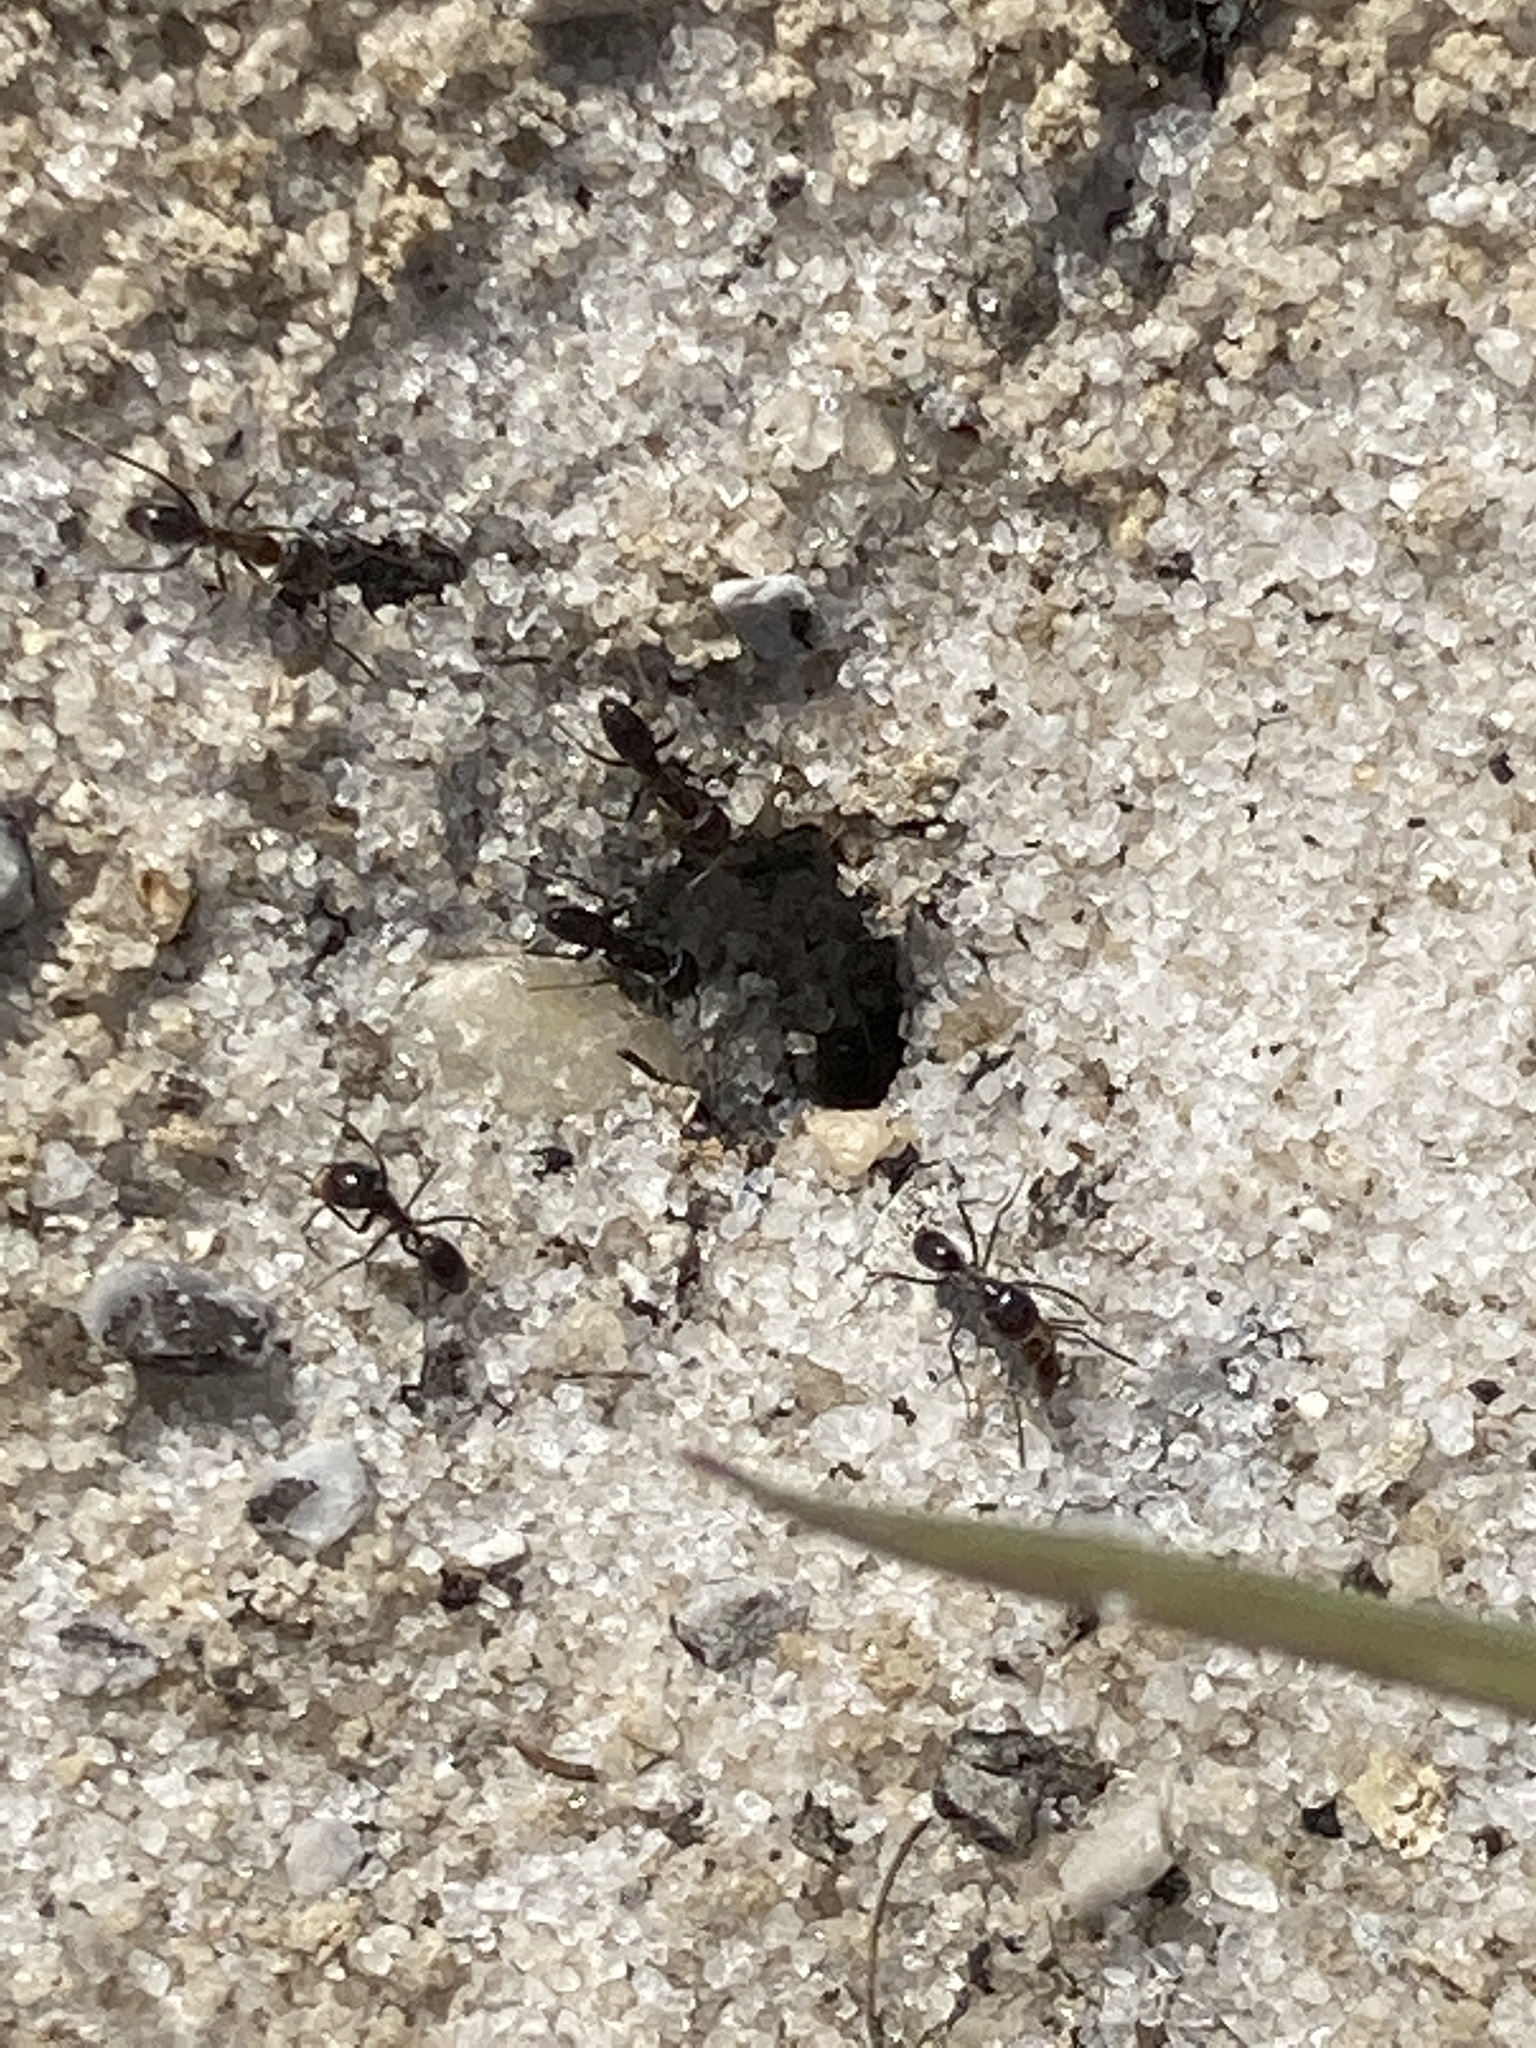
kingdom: Animalia
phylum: Arthropoda
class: Insecta
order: Hymenoptera
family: Formicidae
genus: Dorymyrmex
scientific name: Dorymyrmex grandulus
